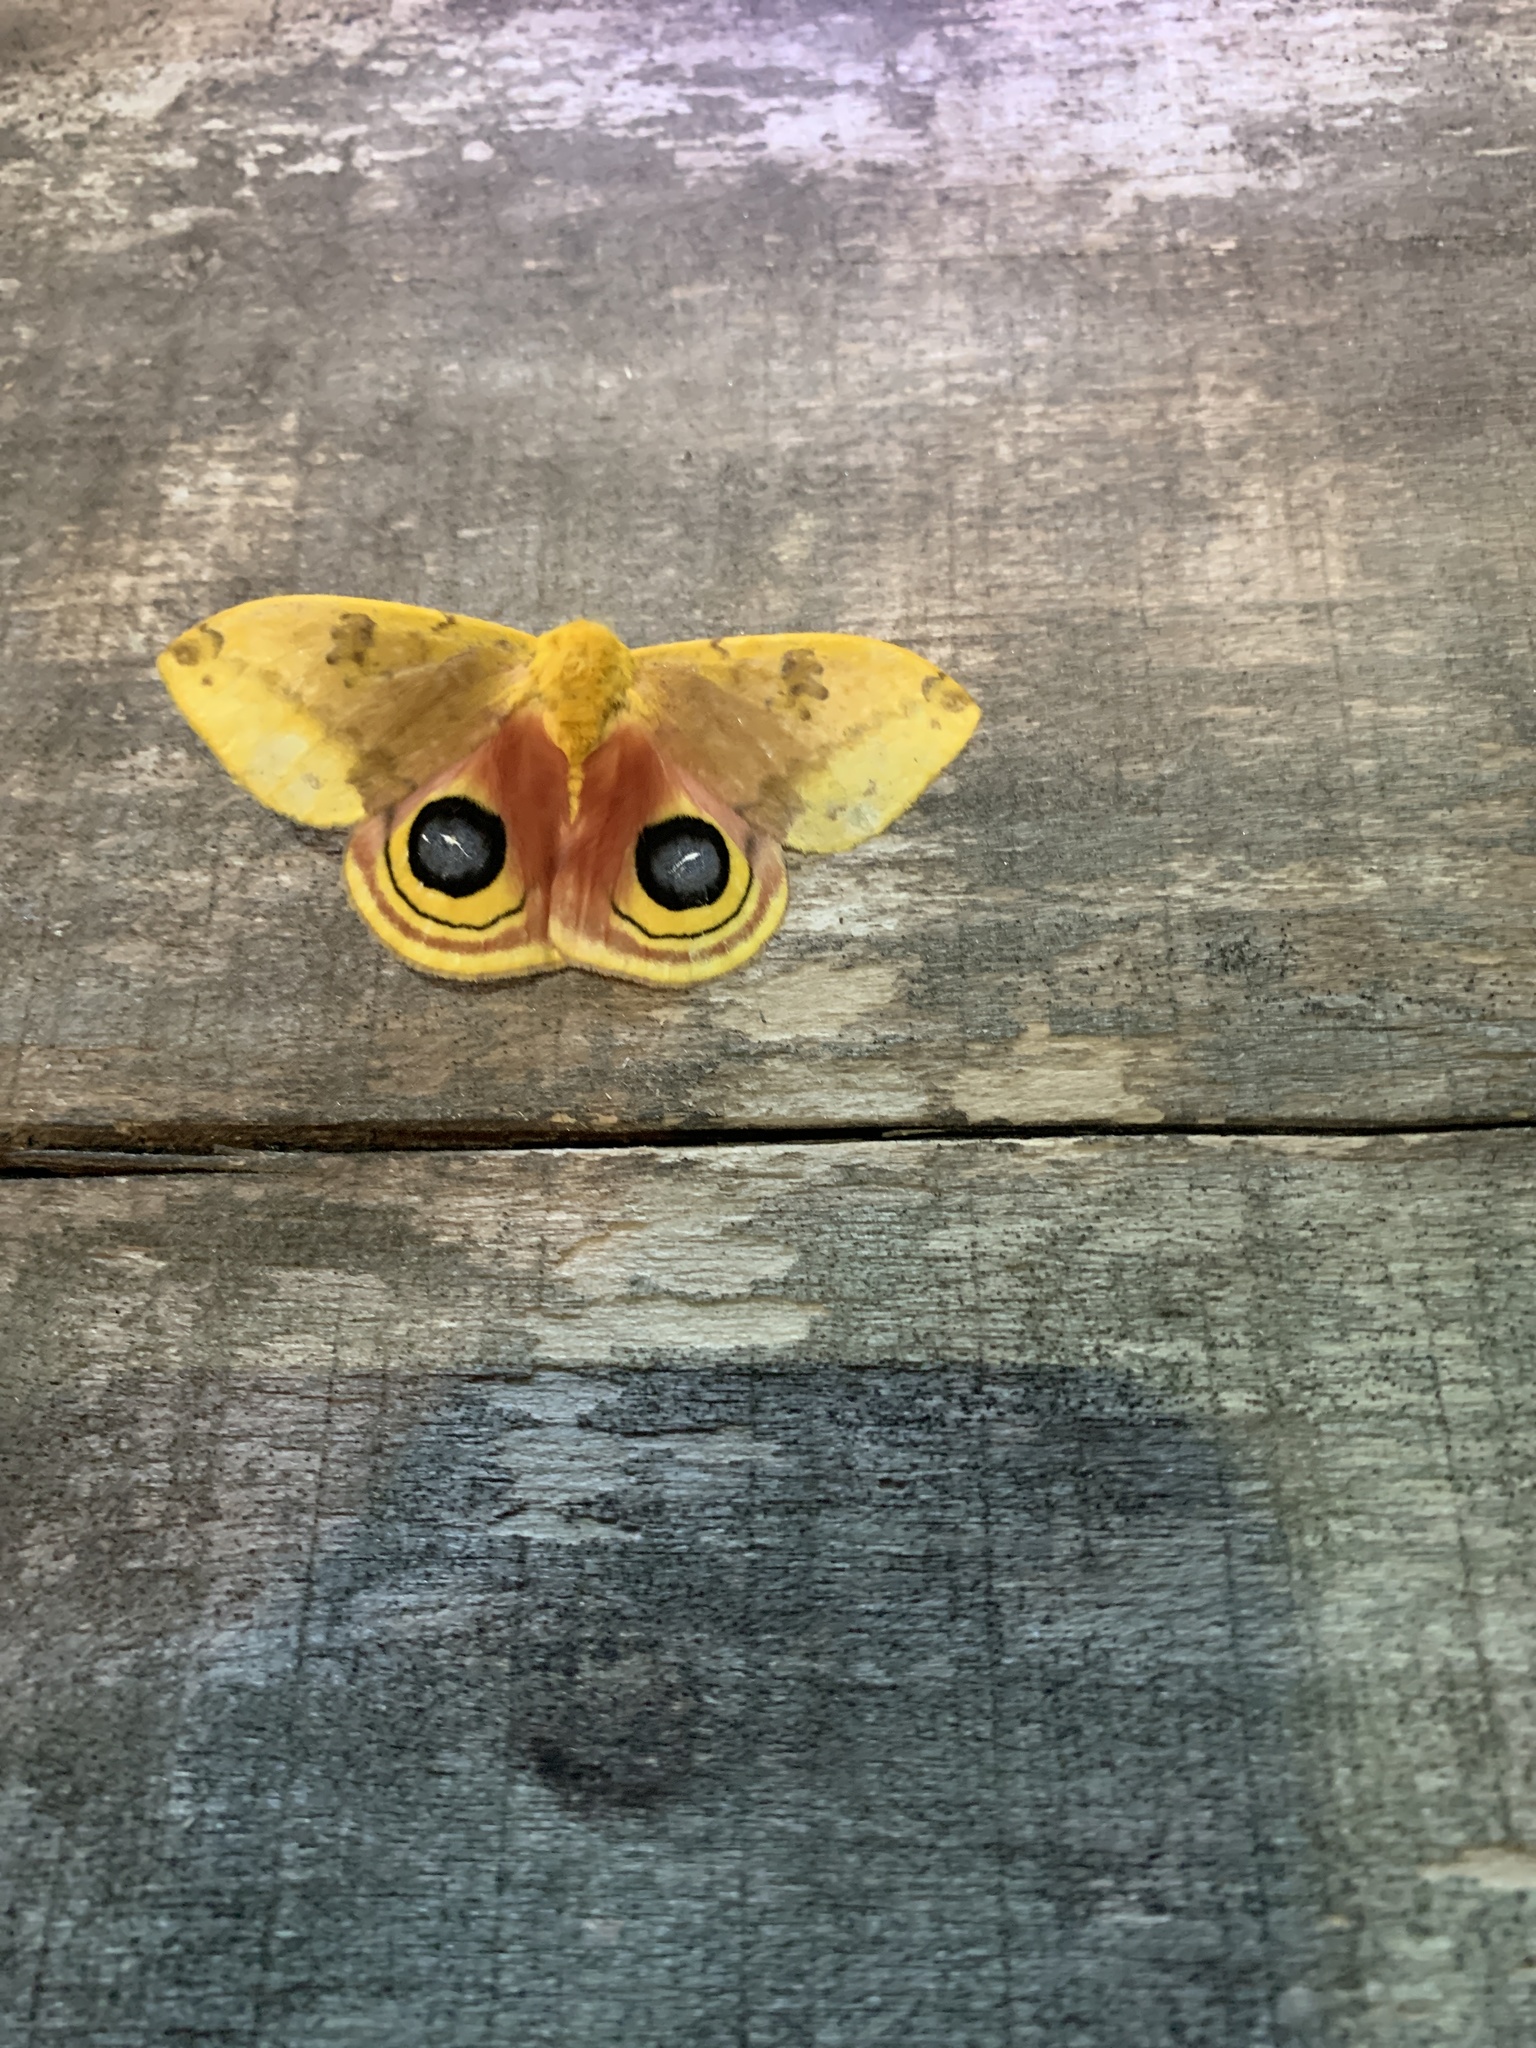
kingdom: Animalia
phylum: Arthropoda
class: Insecta
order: Lepidoptera
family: Saturniidae
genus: Automeris
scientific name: Automeris io
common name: Io moth
